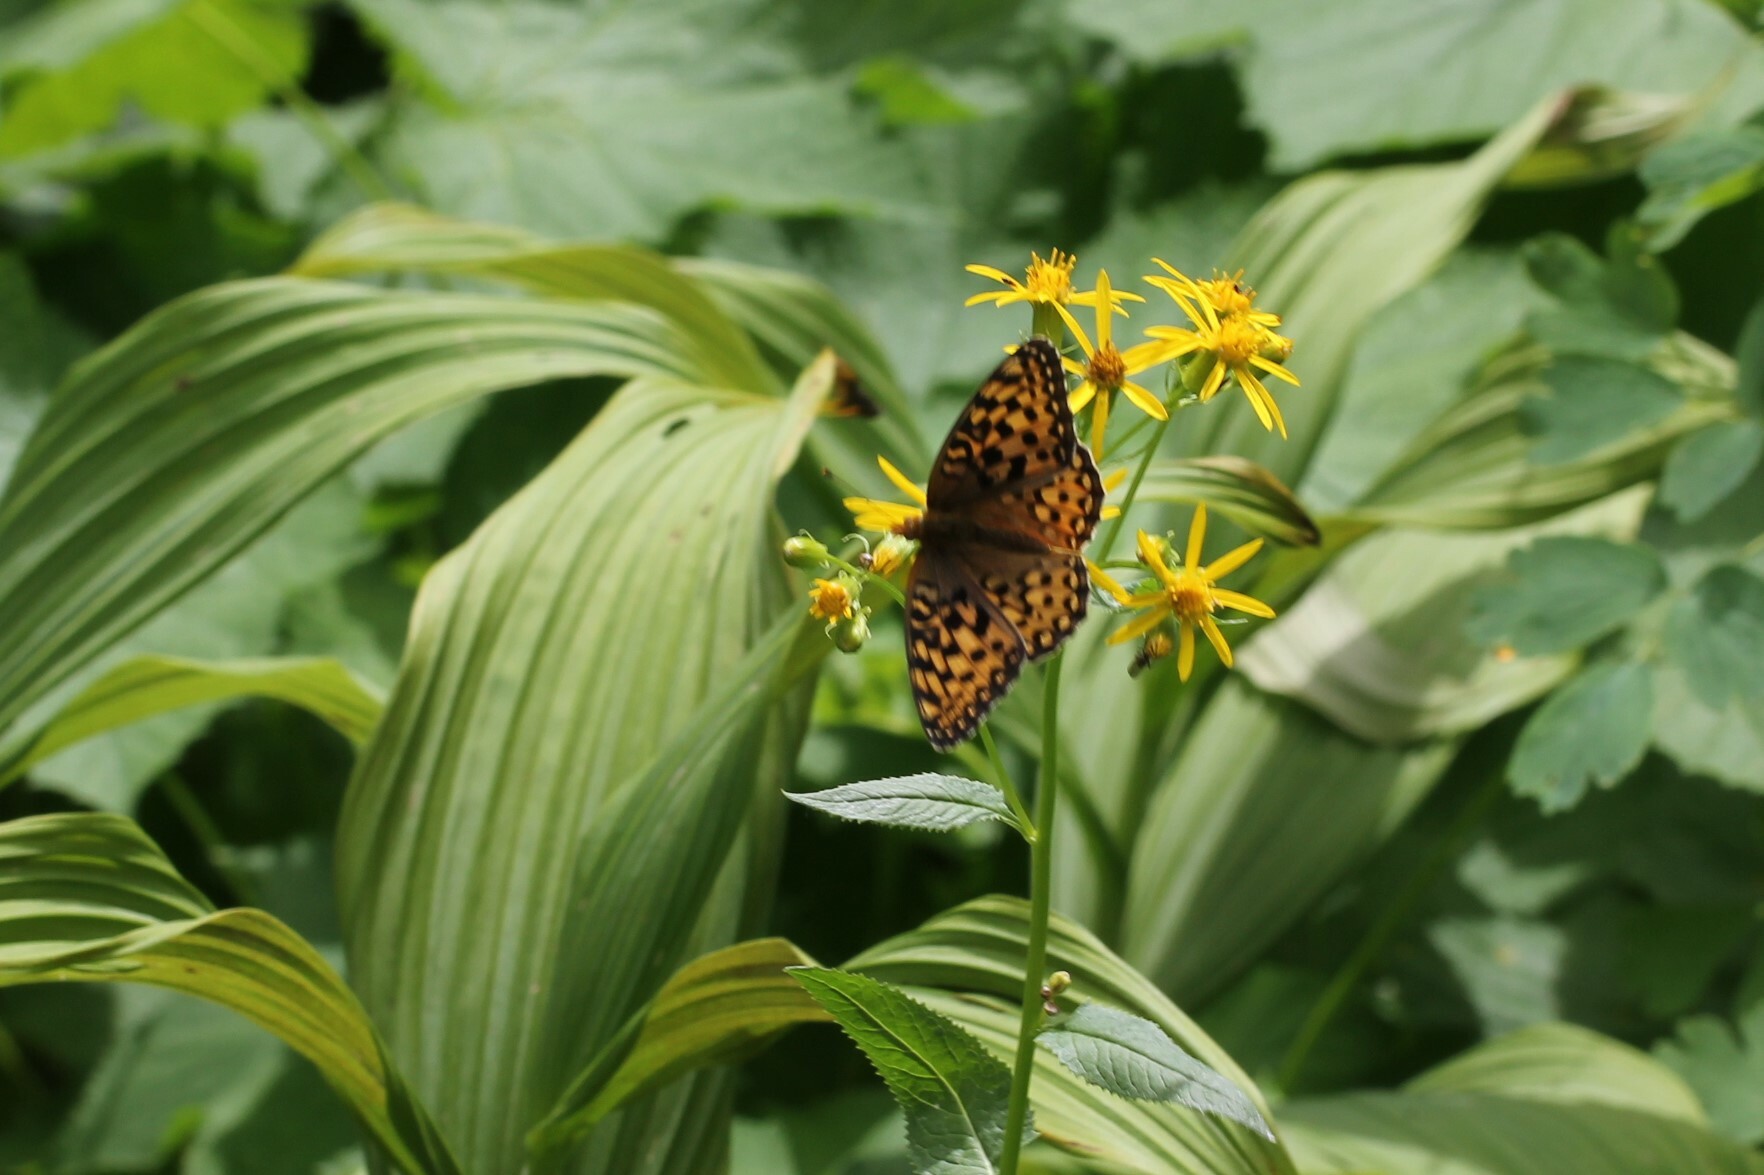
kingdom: Animalia
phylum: Arthropoda
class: Insecta
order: Lepidoptera
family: Nymphalidae
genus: Speyeria
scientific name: Speyeria hydaspe
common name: Hydaspe fritillary
